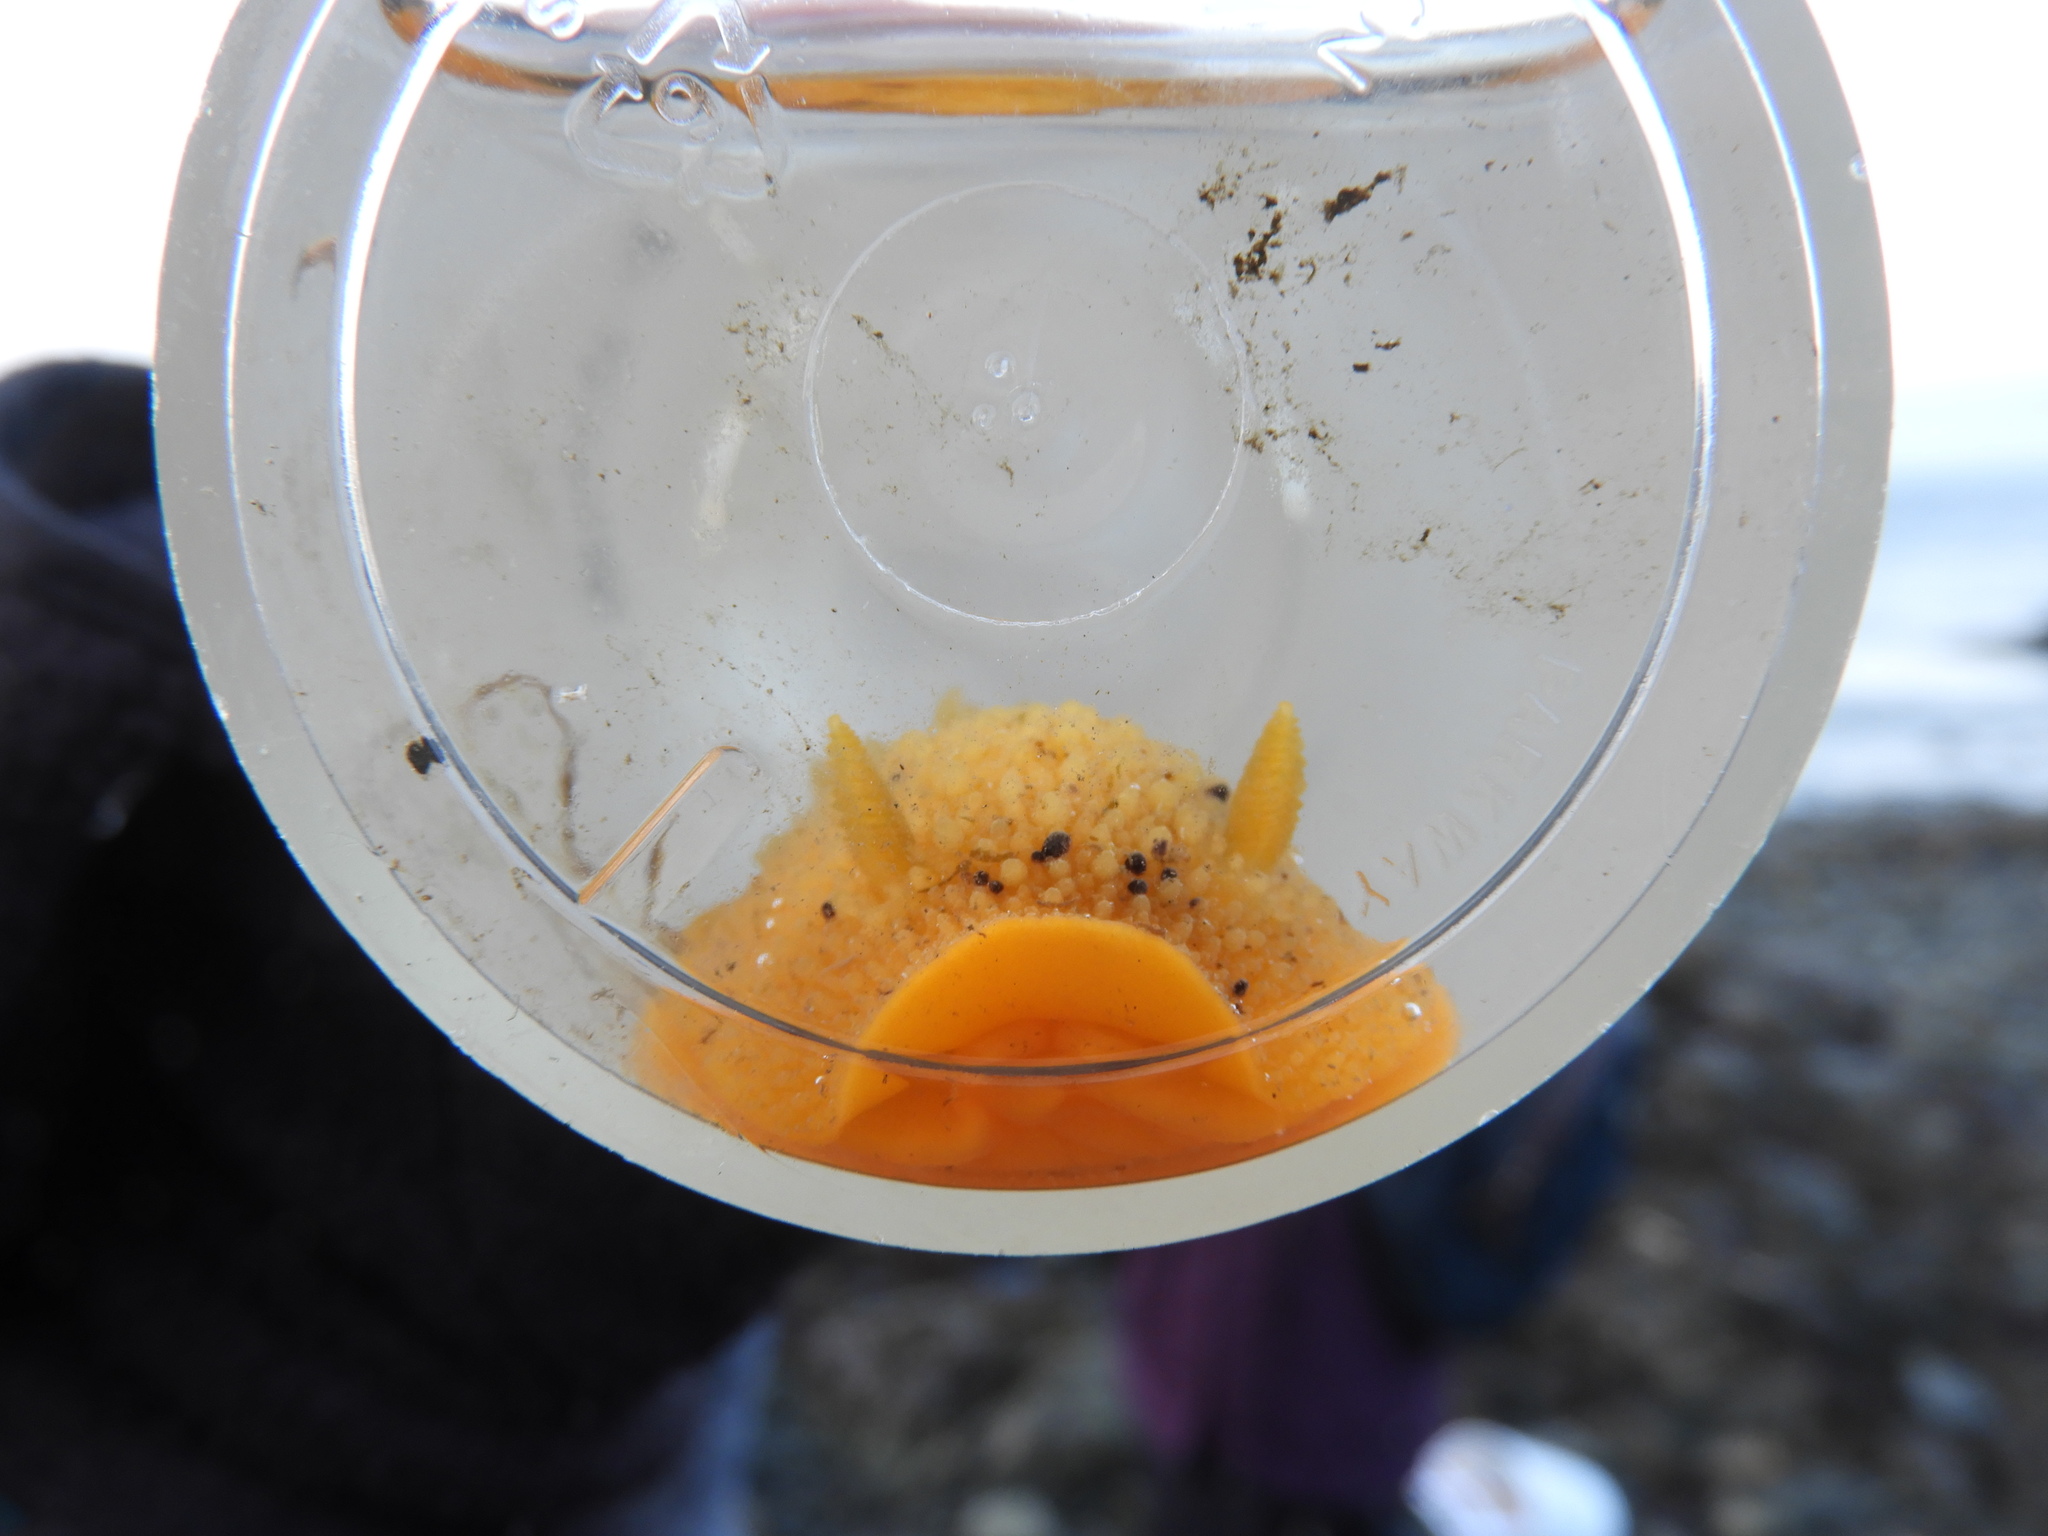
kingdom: Animalia
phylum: Mollusca
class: Gastropoda
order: Nudibranchia
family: Dorididae
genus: Doris
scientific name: Doris montereyensis
